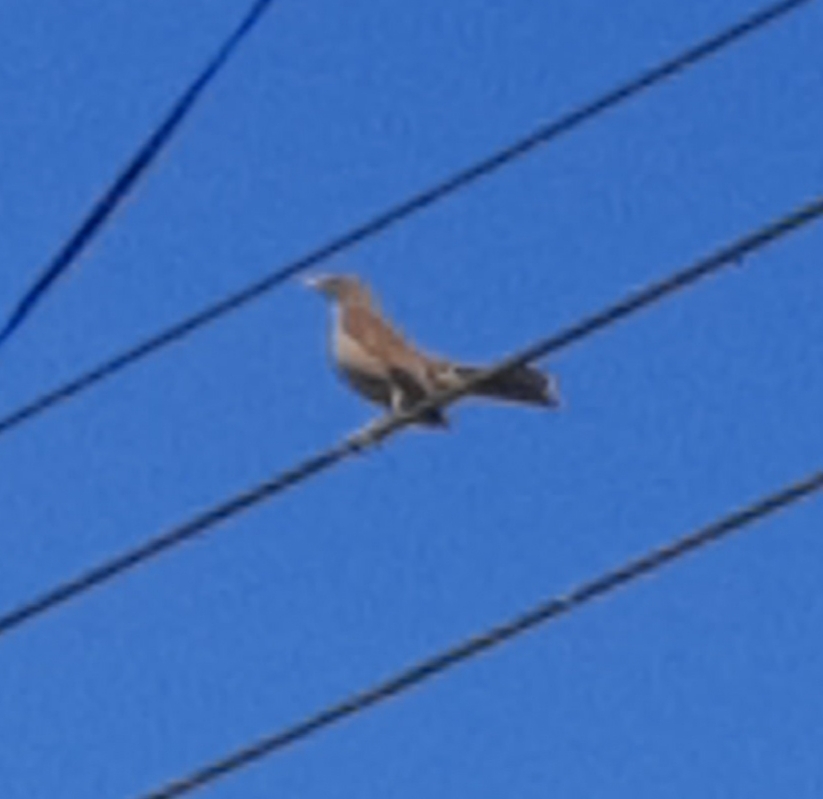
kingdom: Animalia
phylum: Chordata
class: Aves
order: Passeriformes
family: Turdidae
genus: Turdus
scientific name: Turdus grayi
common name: Clay-colored thrush
